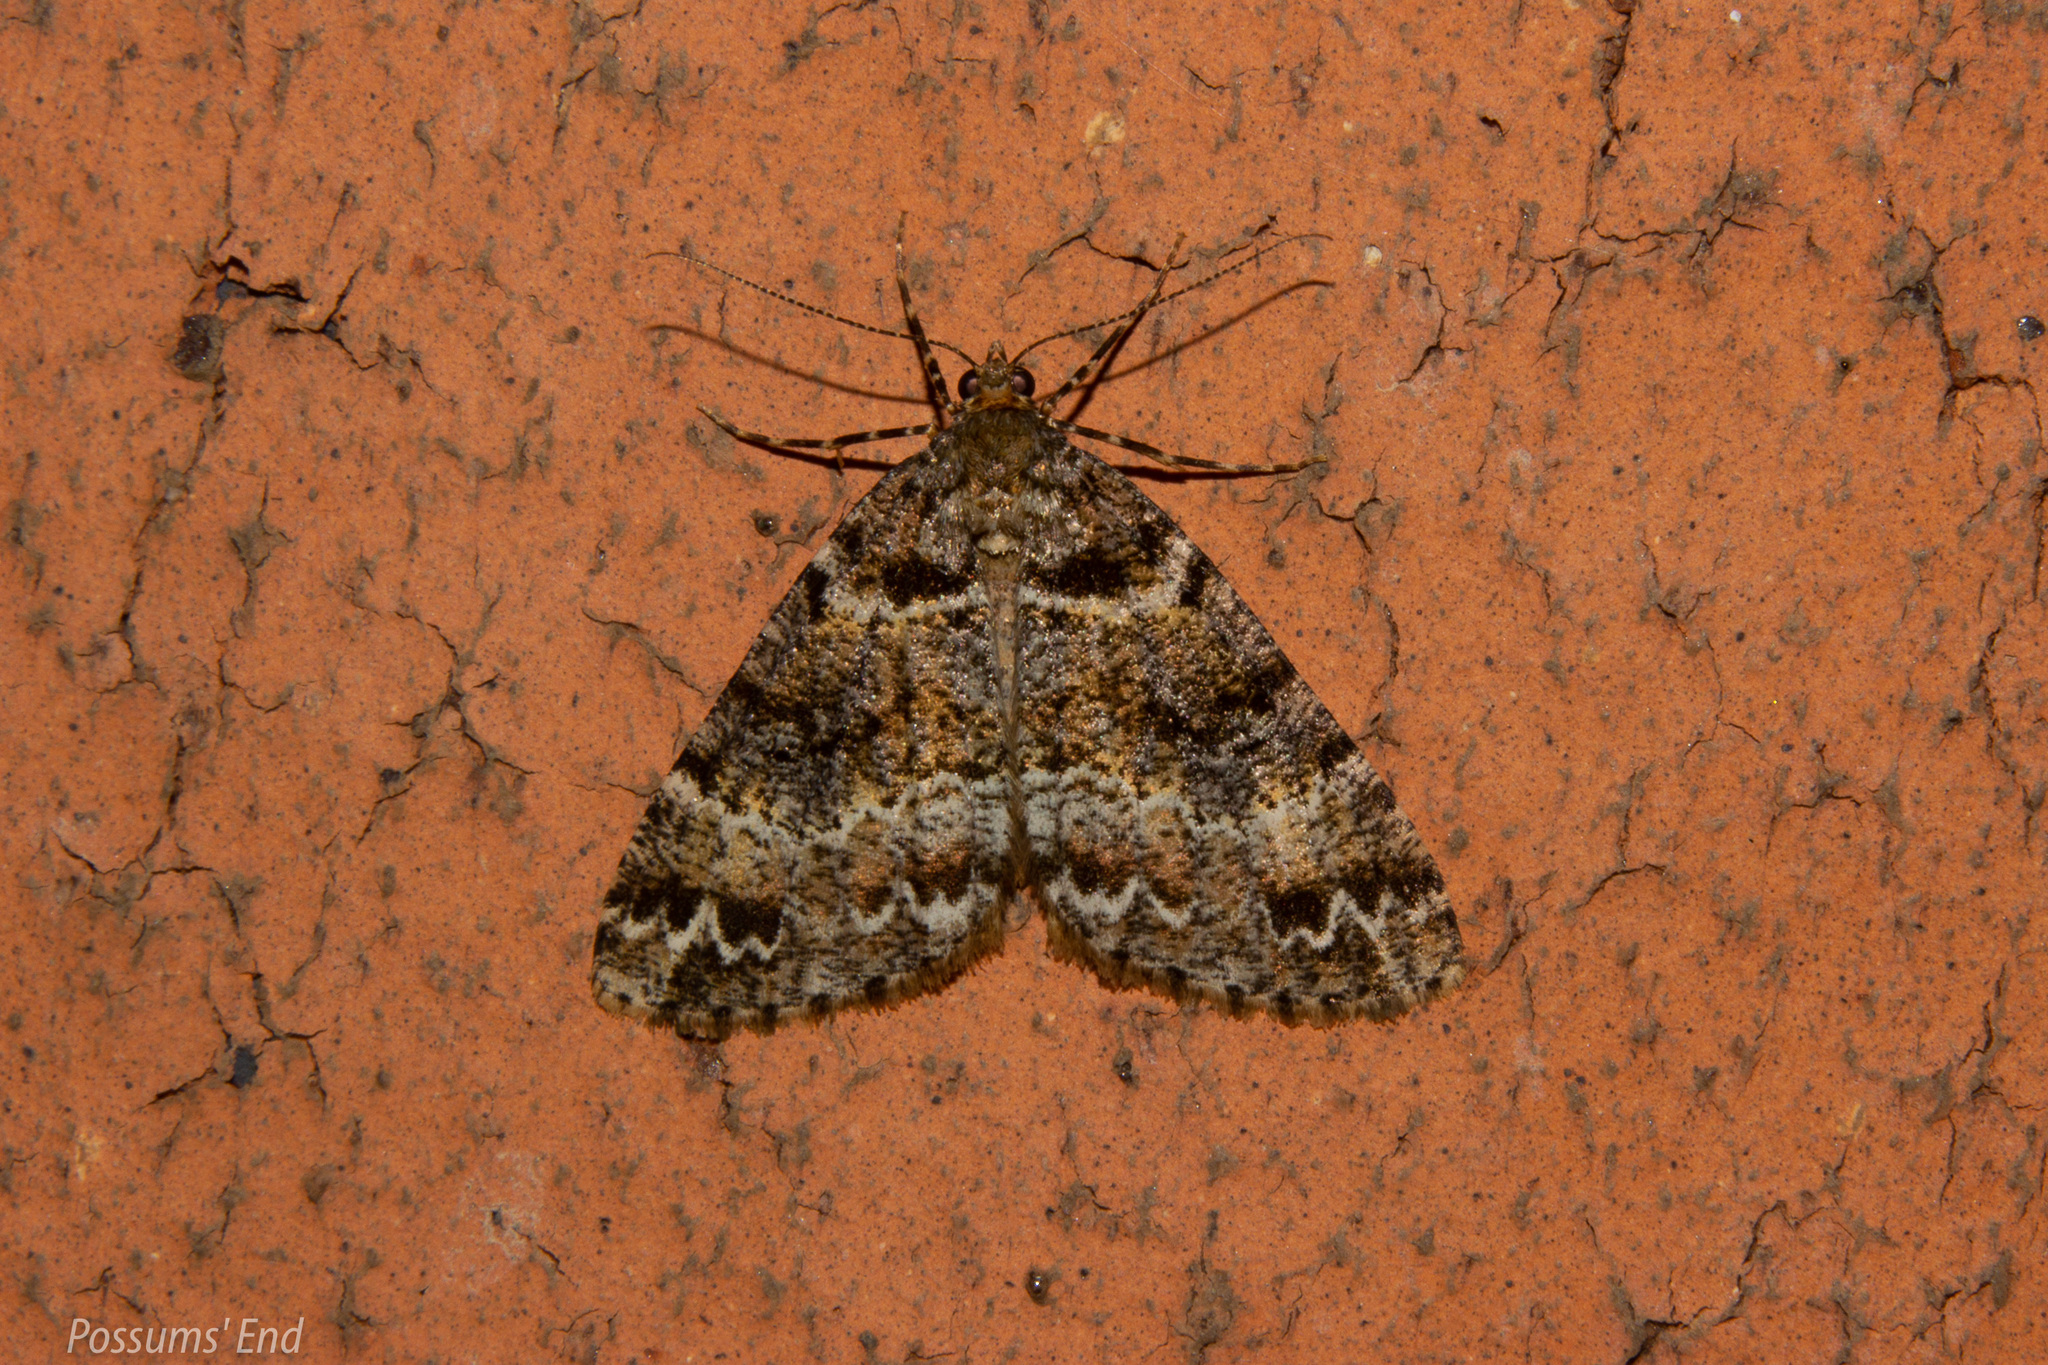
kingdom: Animalia
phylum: Arthropoda
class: Insecta
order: Lepidoptera
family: Geometridae
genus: Pseudocoremia
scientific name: Pseudocoremia productata
